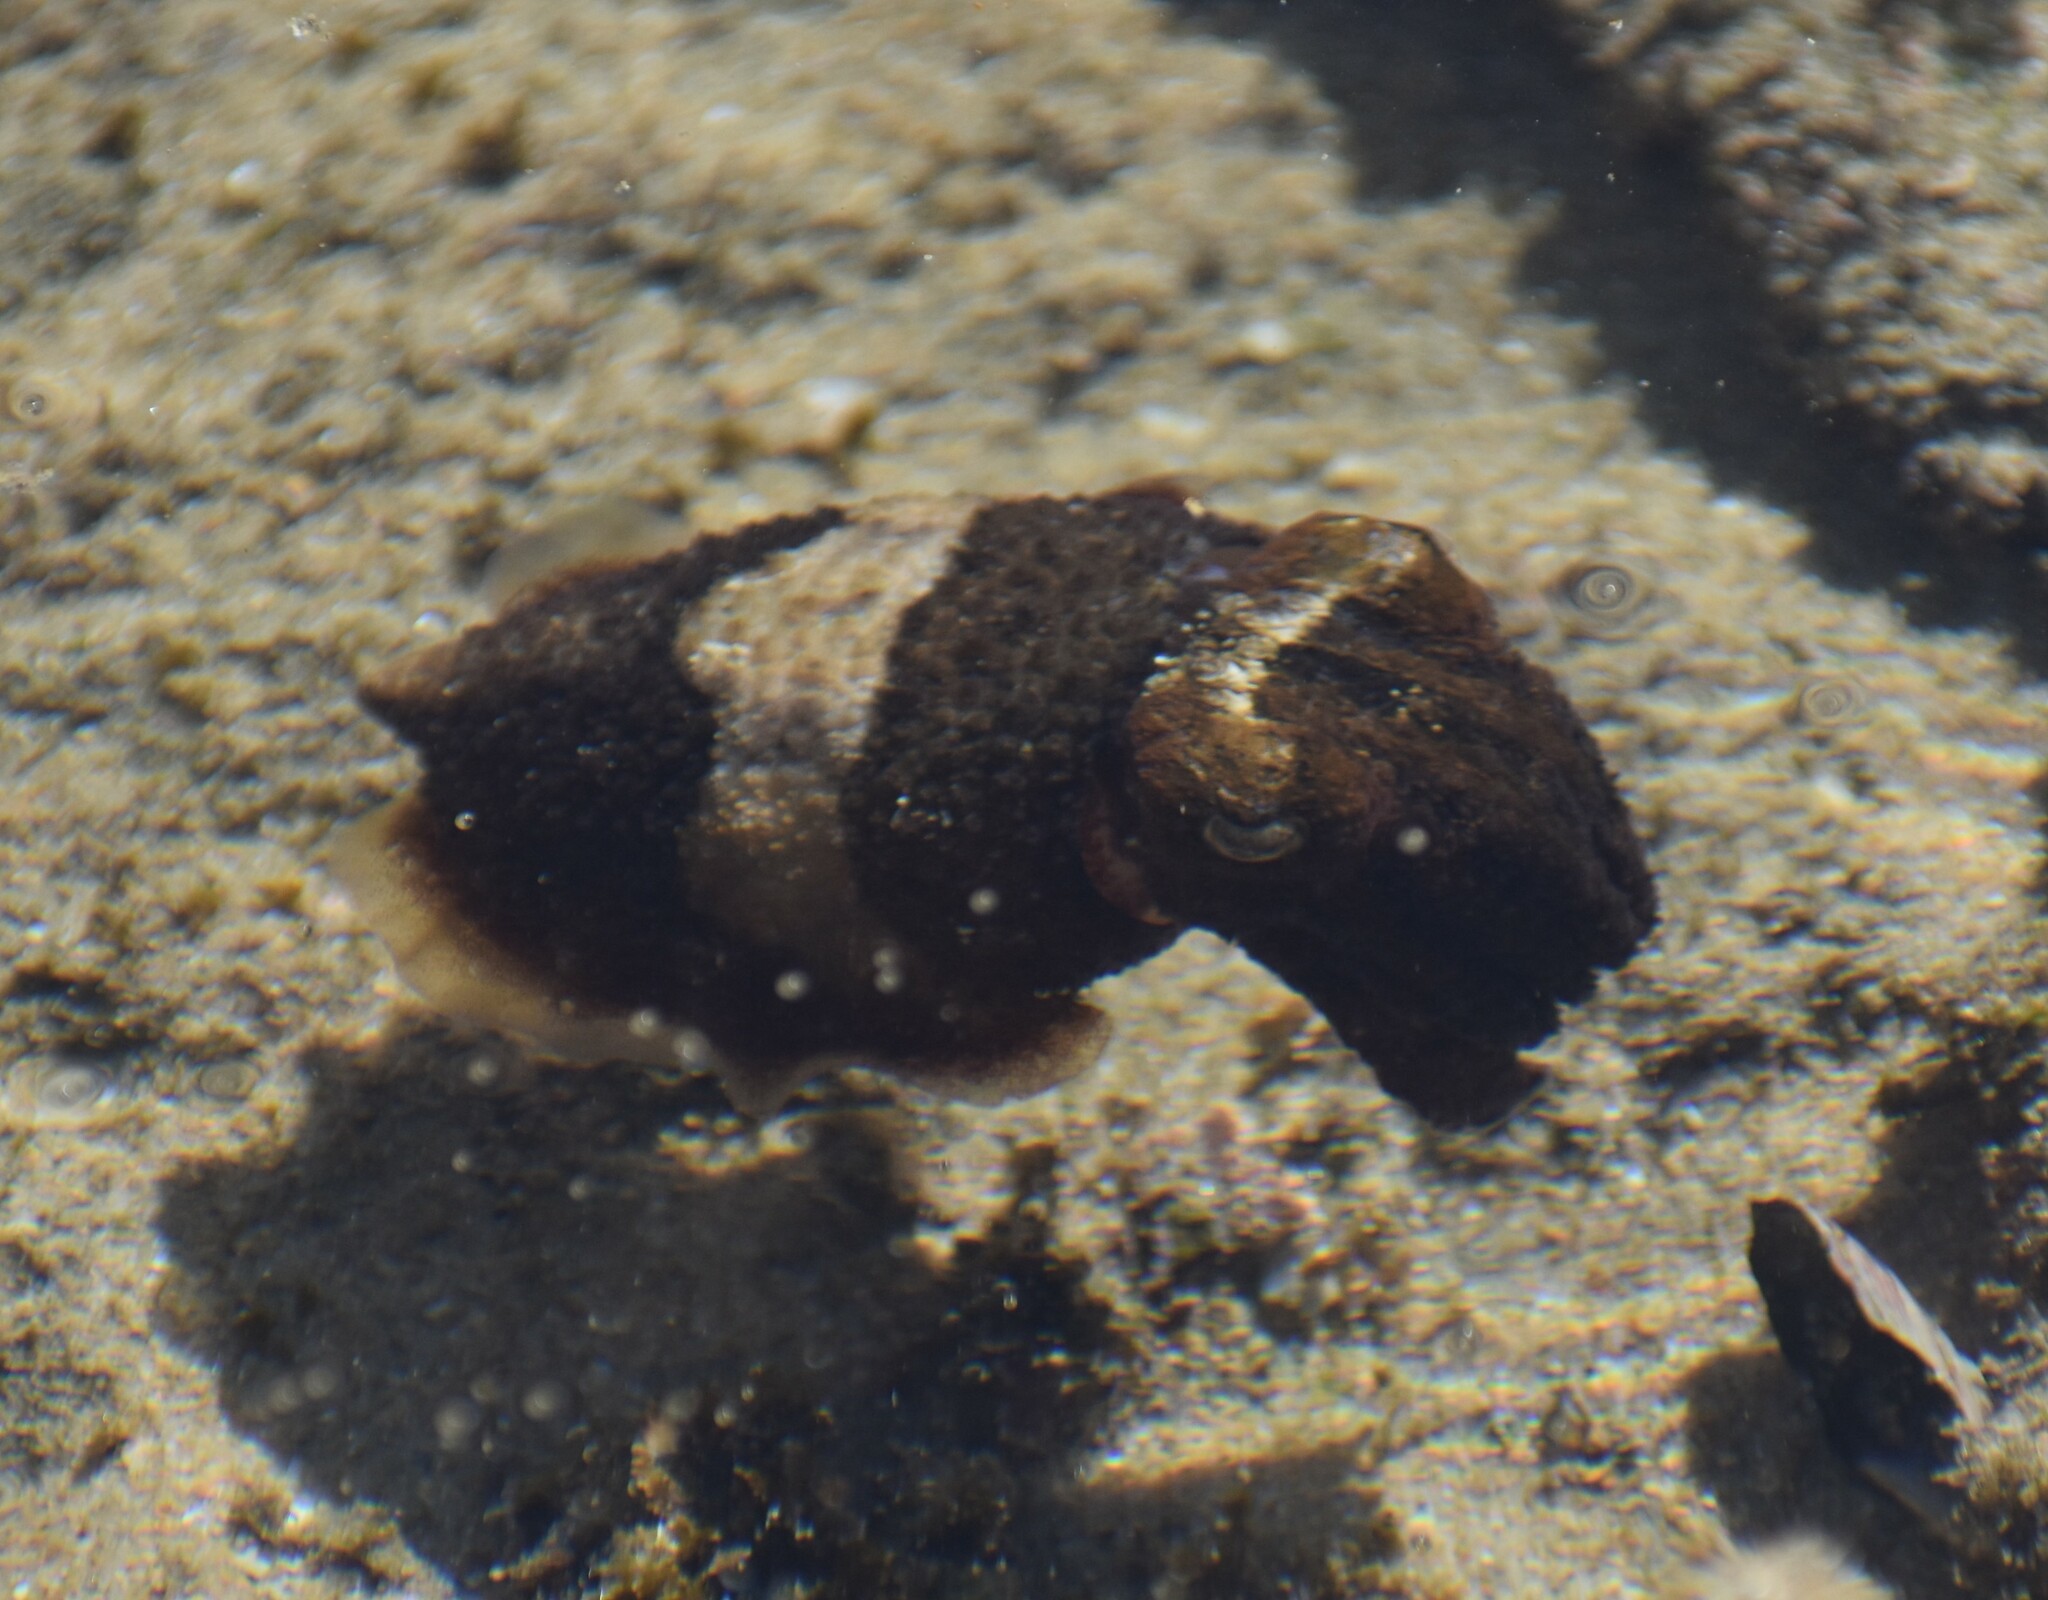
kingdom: Animalia
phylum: Mollusca
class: Cephalopoda
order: Sepiida
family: Sepiidae
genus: Sepia
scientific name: Sepia tuberculata
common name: Tuberculate cuttlefish
